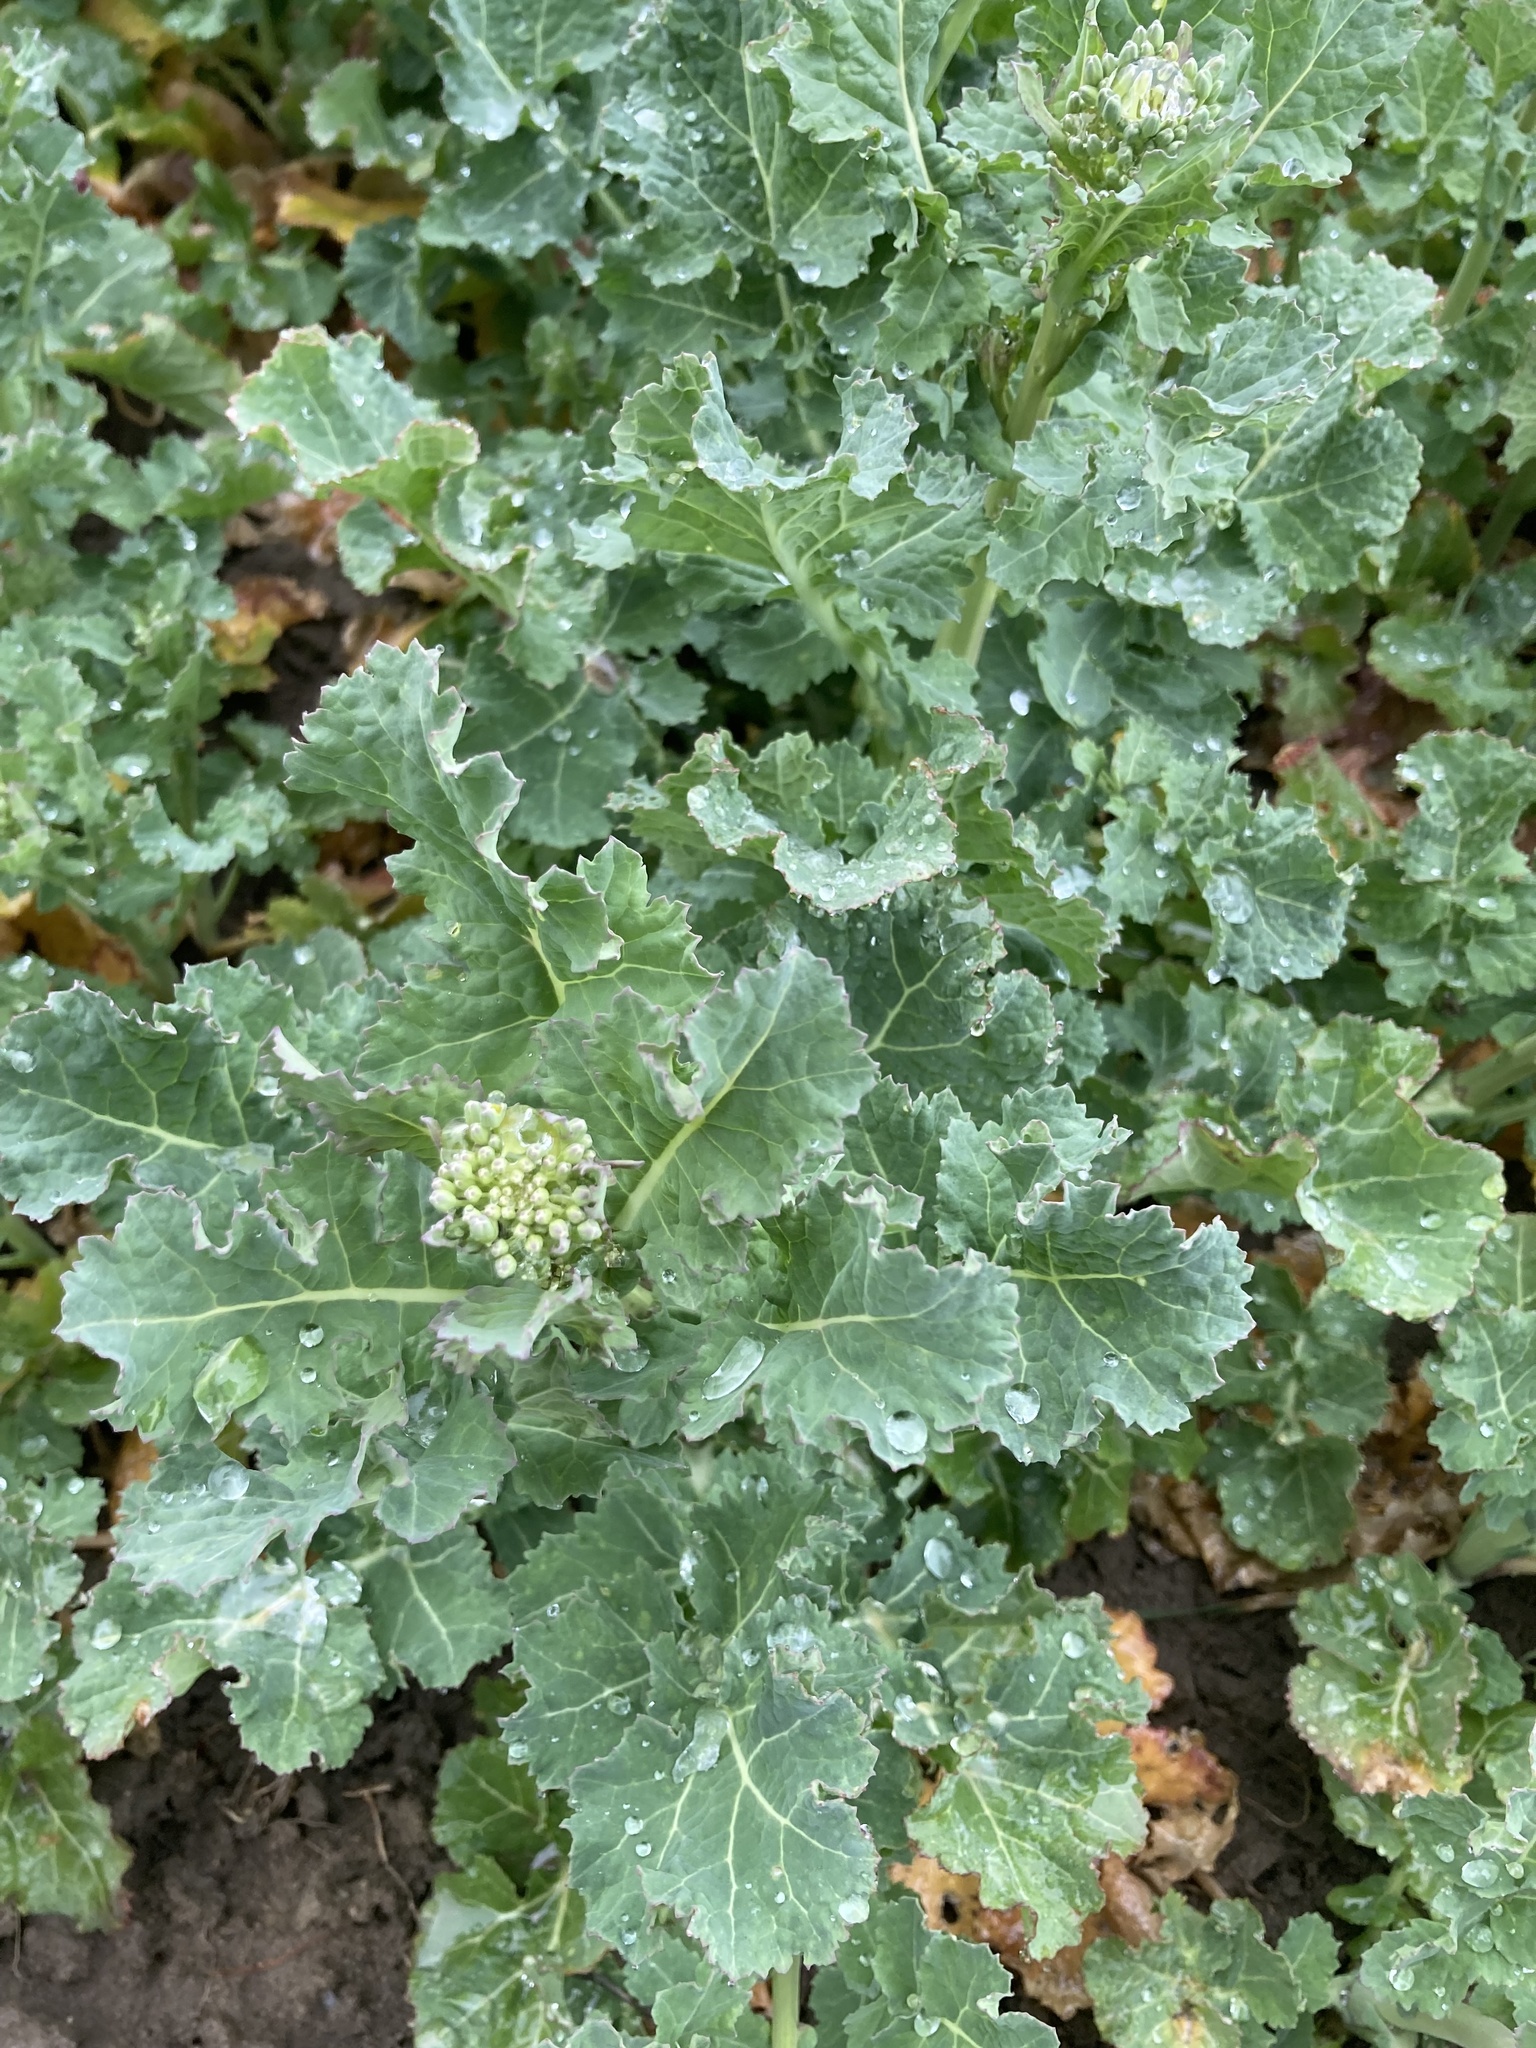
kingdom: Plantae
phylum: Tracheophyta
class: Magnoliopsida
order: Brassicales
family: Brassicaceae
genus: Brassica
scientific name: Brassica napus
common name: Rape
